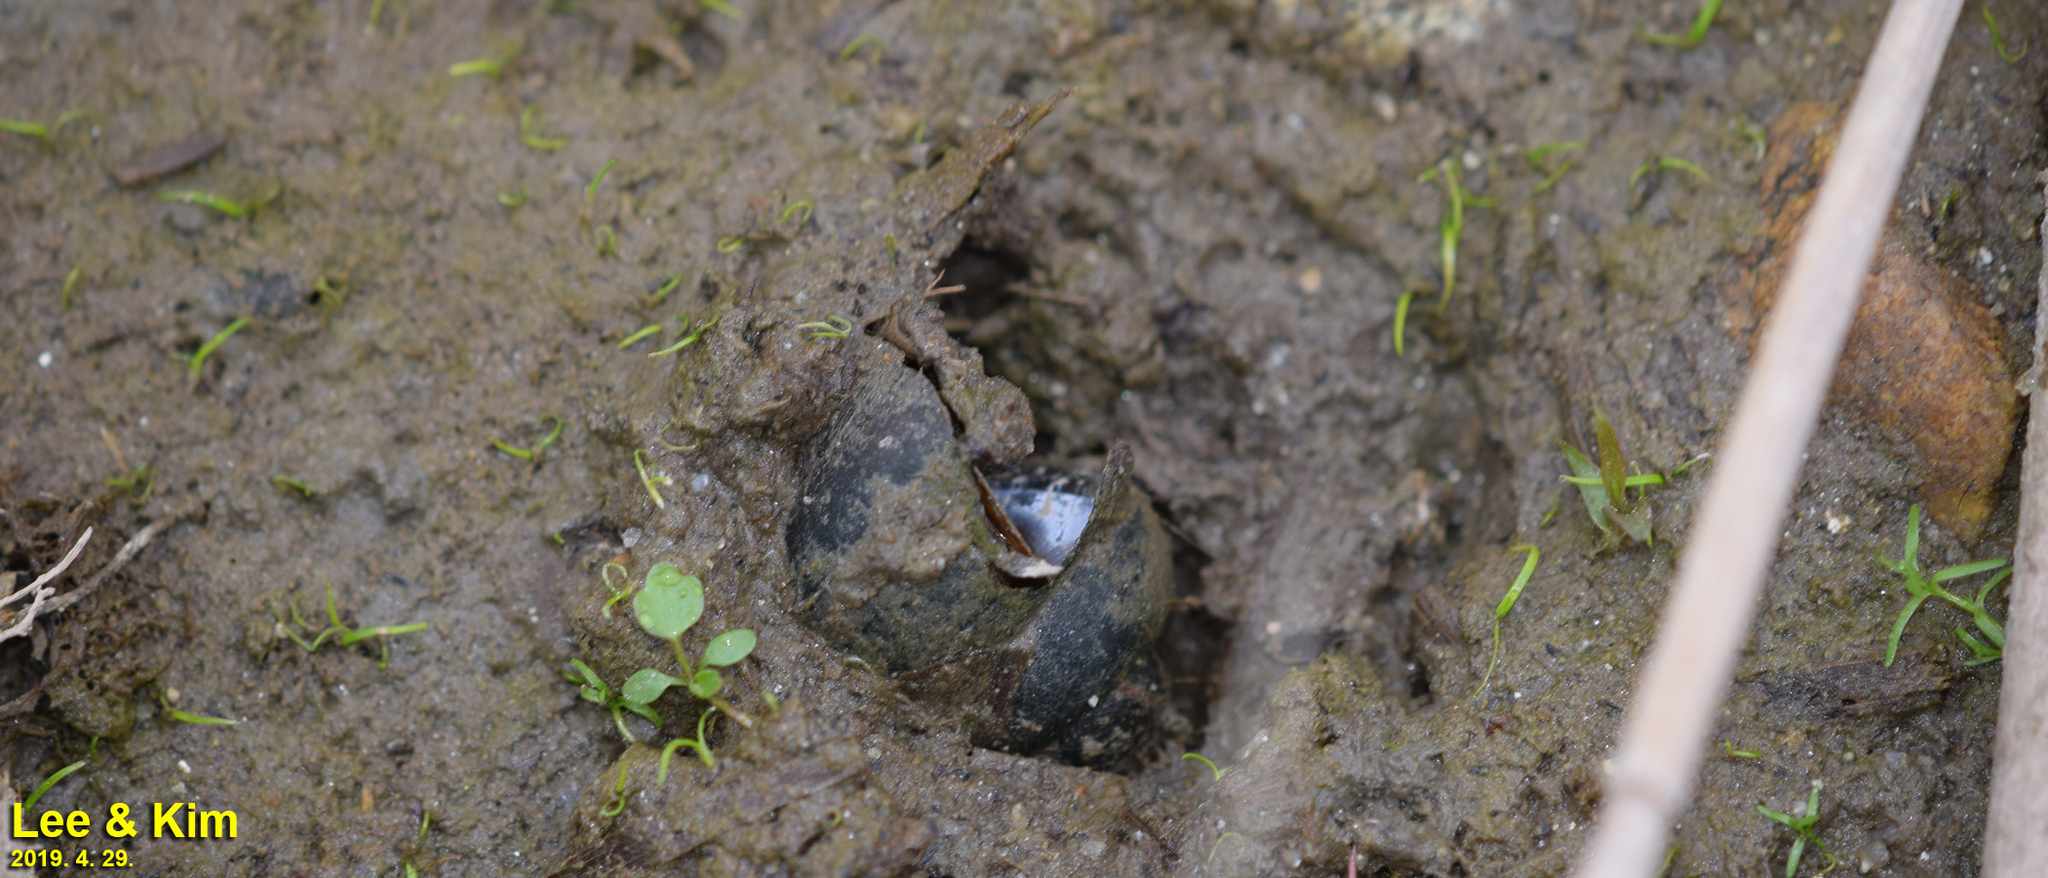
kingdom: Animalia
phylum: Mollusca
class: Gastropoda
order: Architaenioglossa
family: Viviparidae
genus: Cipangopaludina
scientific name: Cipangopaludina chinensis
